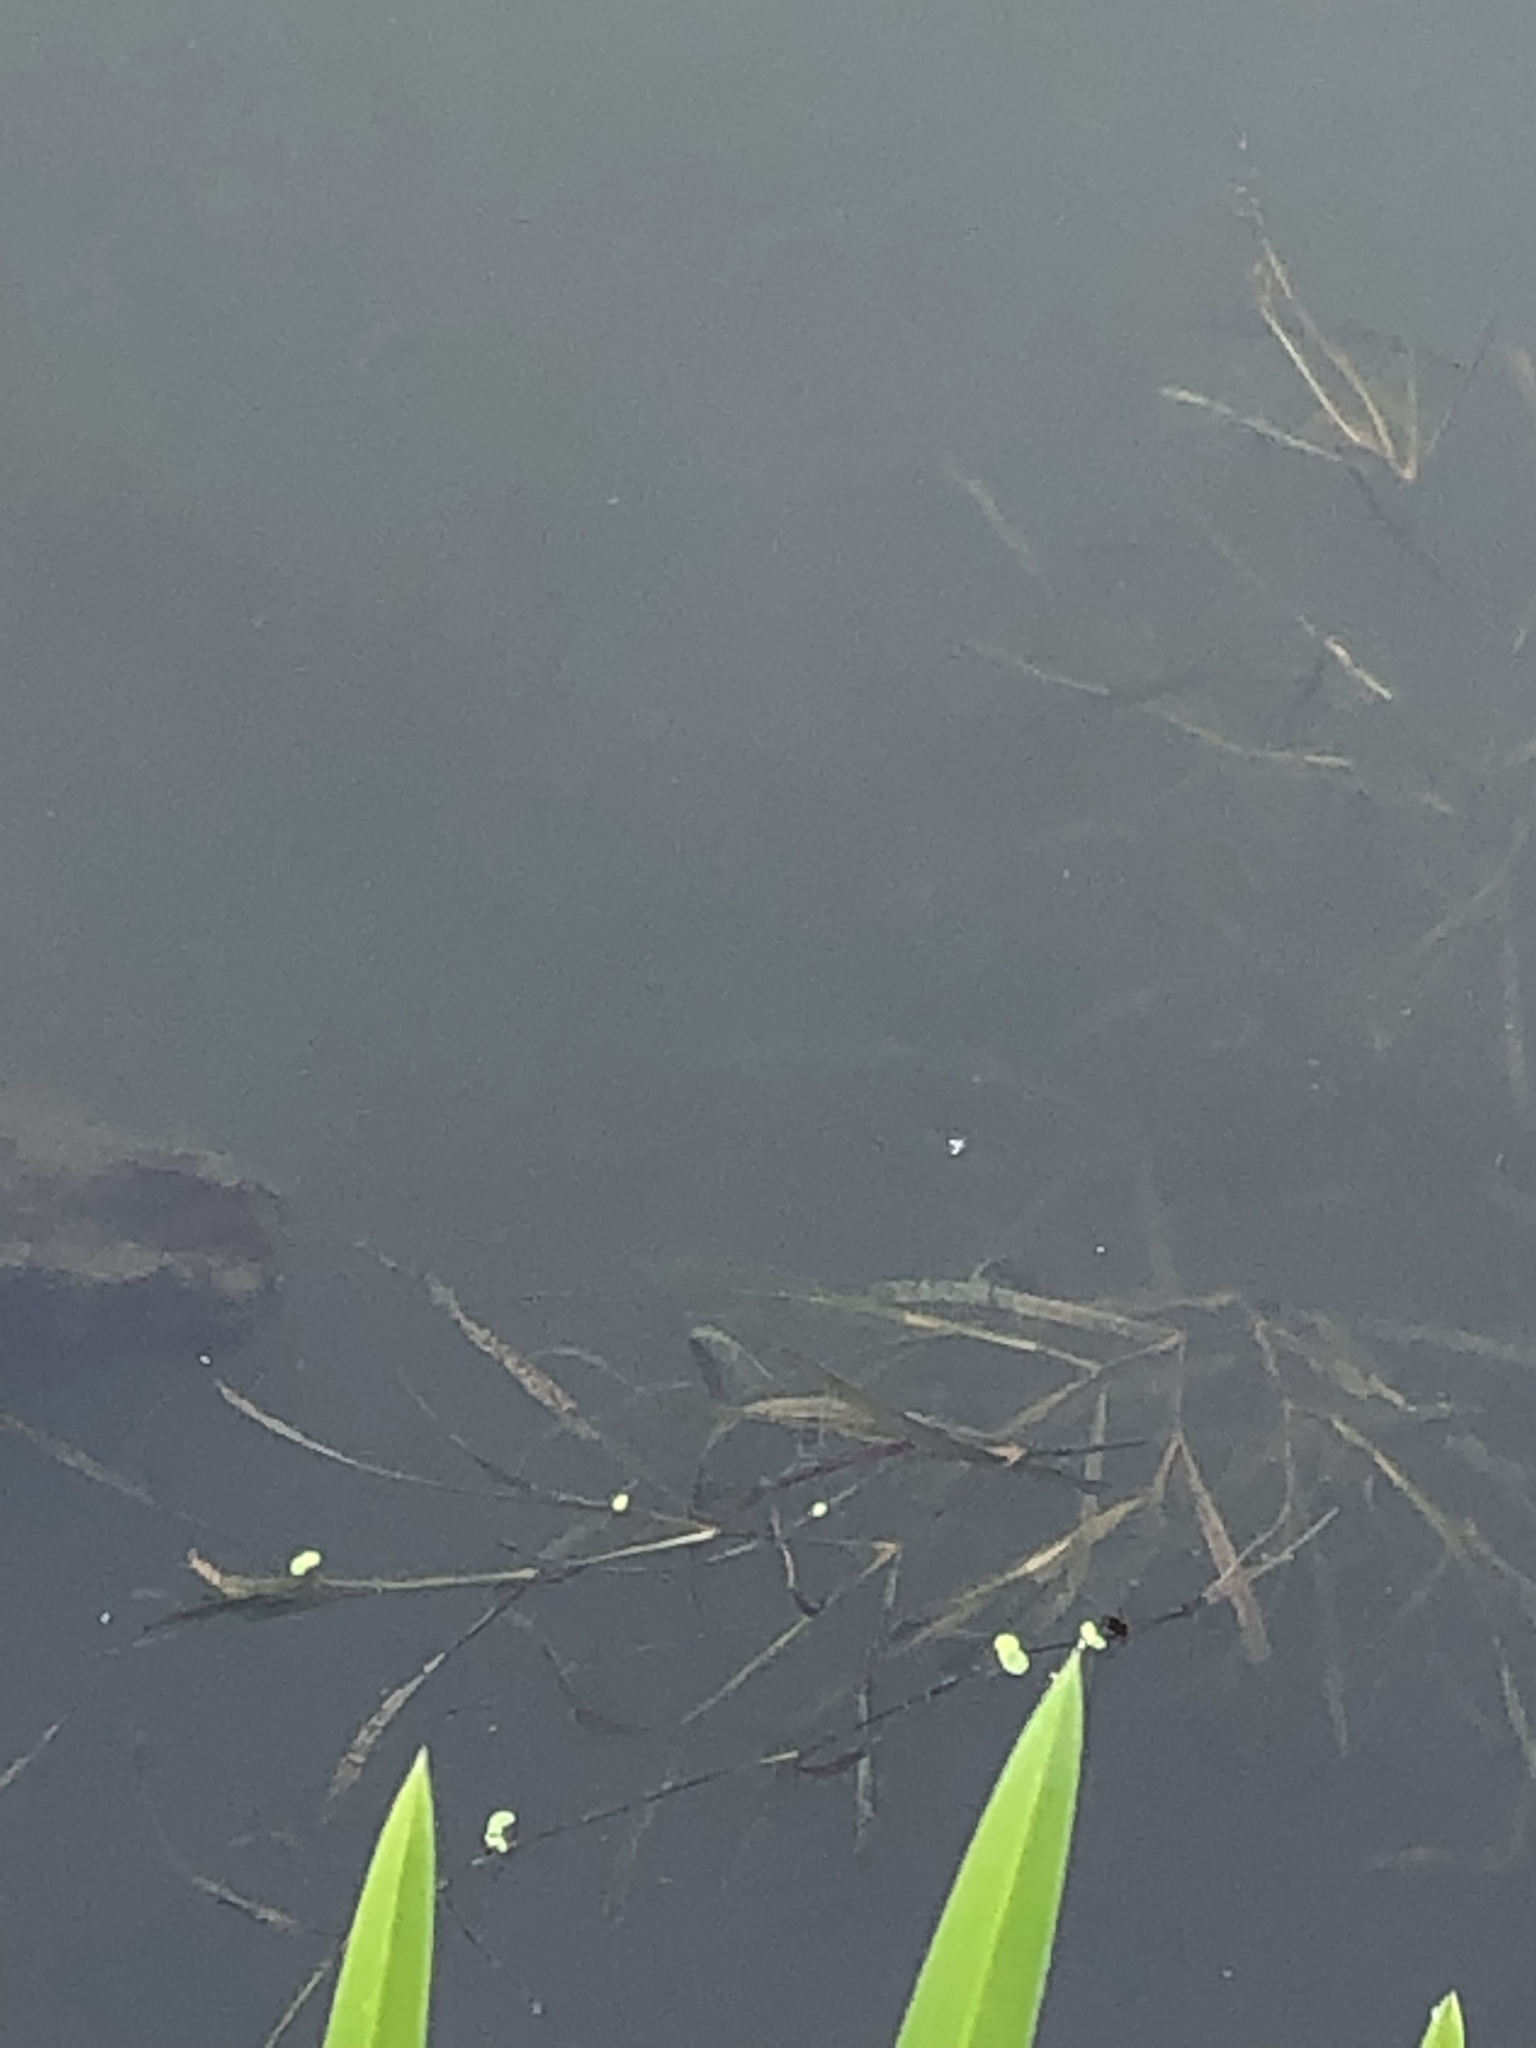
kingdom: Plantae
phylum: Tracheophyta
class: Liliopsida
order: Alismatales
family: Potamogetonaceae
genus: Potamogeton
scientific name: Potamogeton compressus
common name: Grass-wrack pondweed
